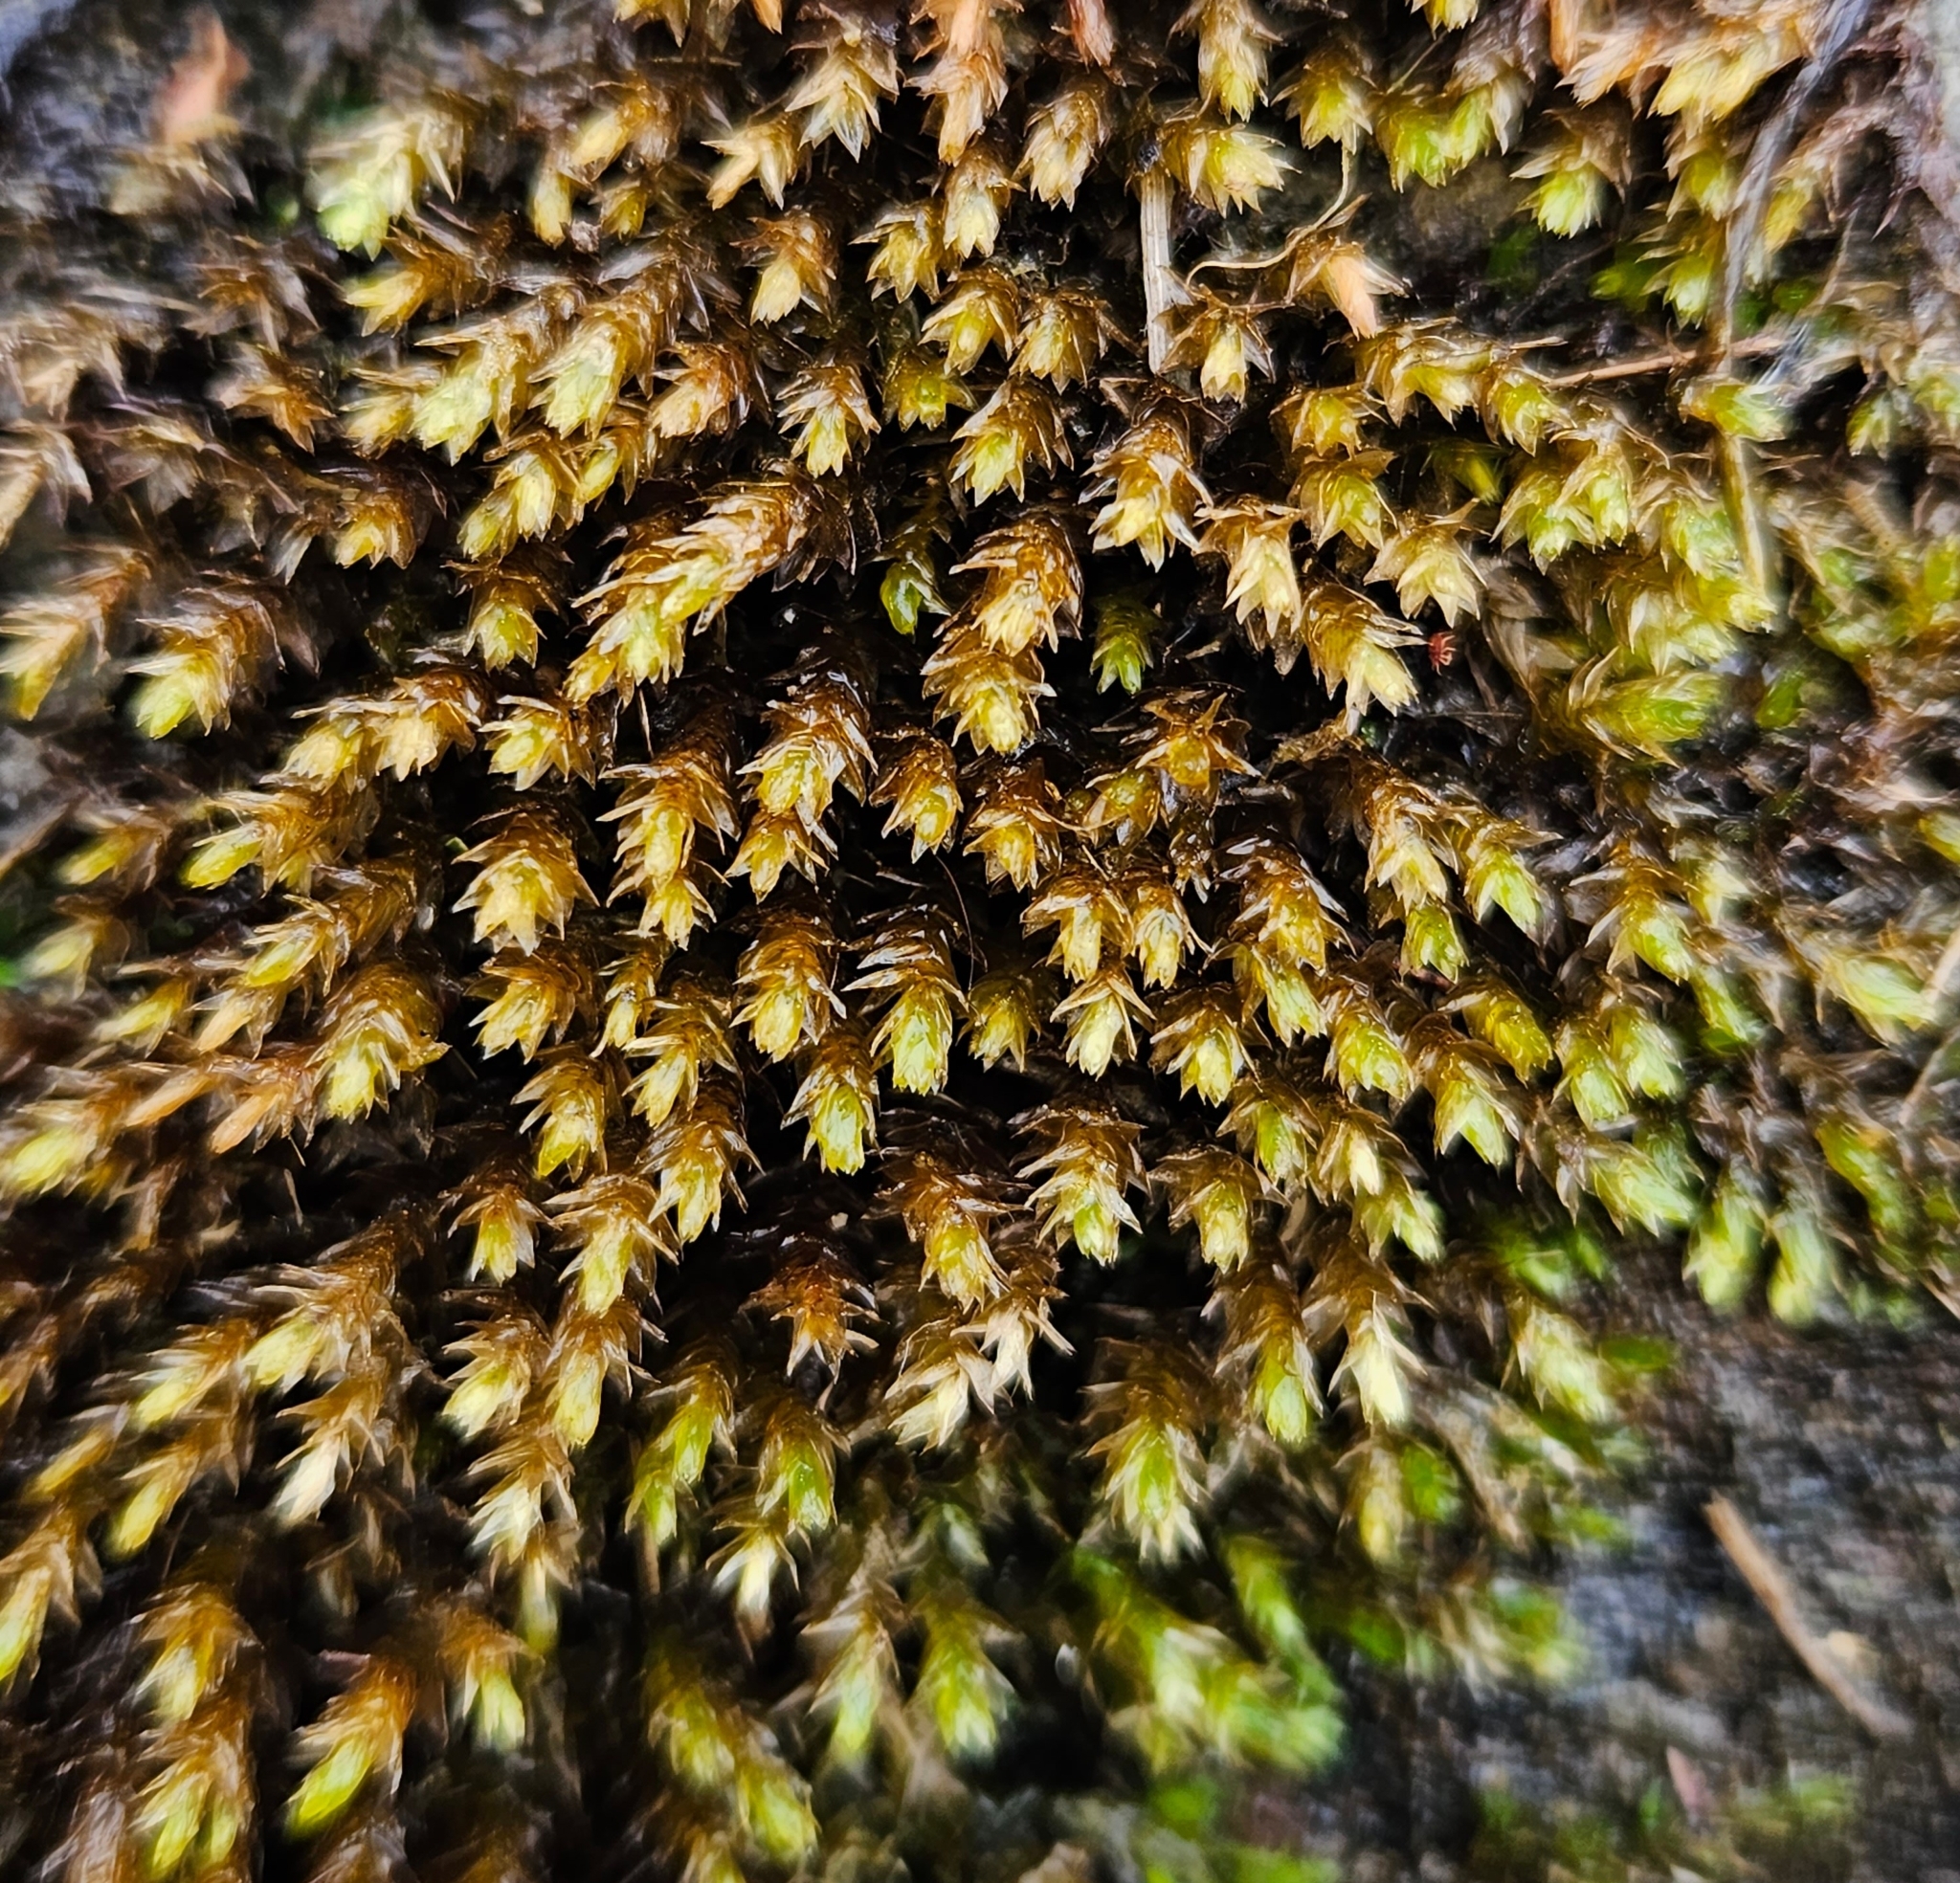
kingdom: Plantae
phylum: Bryophyta
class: Bryopsida
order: Hypnales
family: Brachytheciaceae
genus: Rhynchostegium
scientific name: Rhynchostegium riparioides
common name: Platyhypnidium moss
